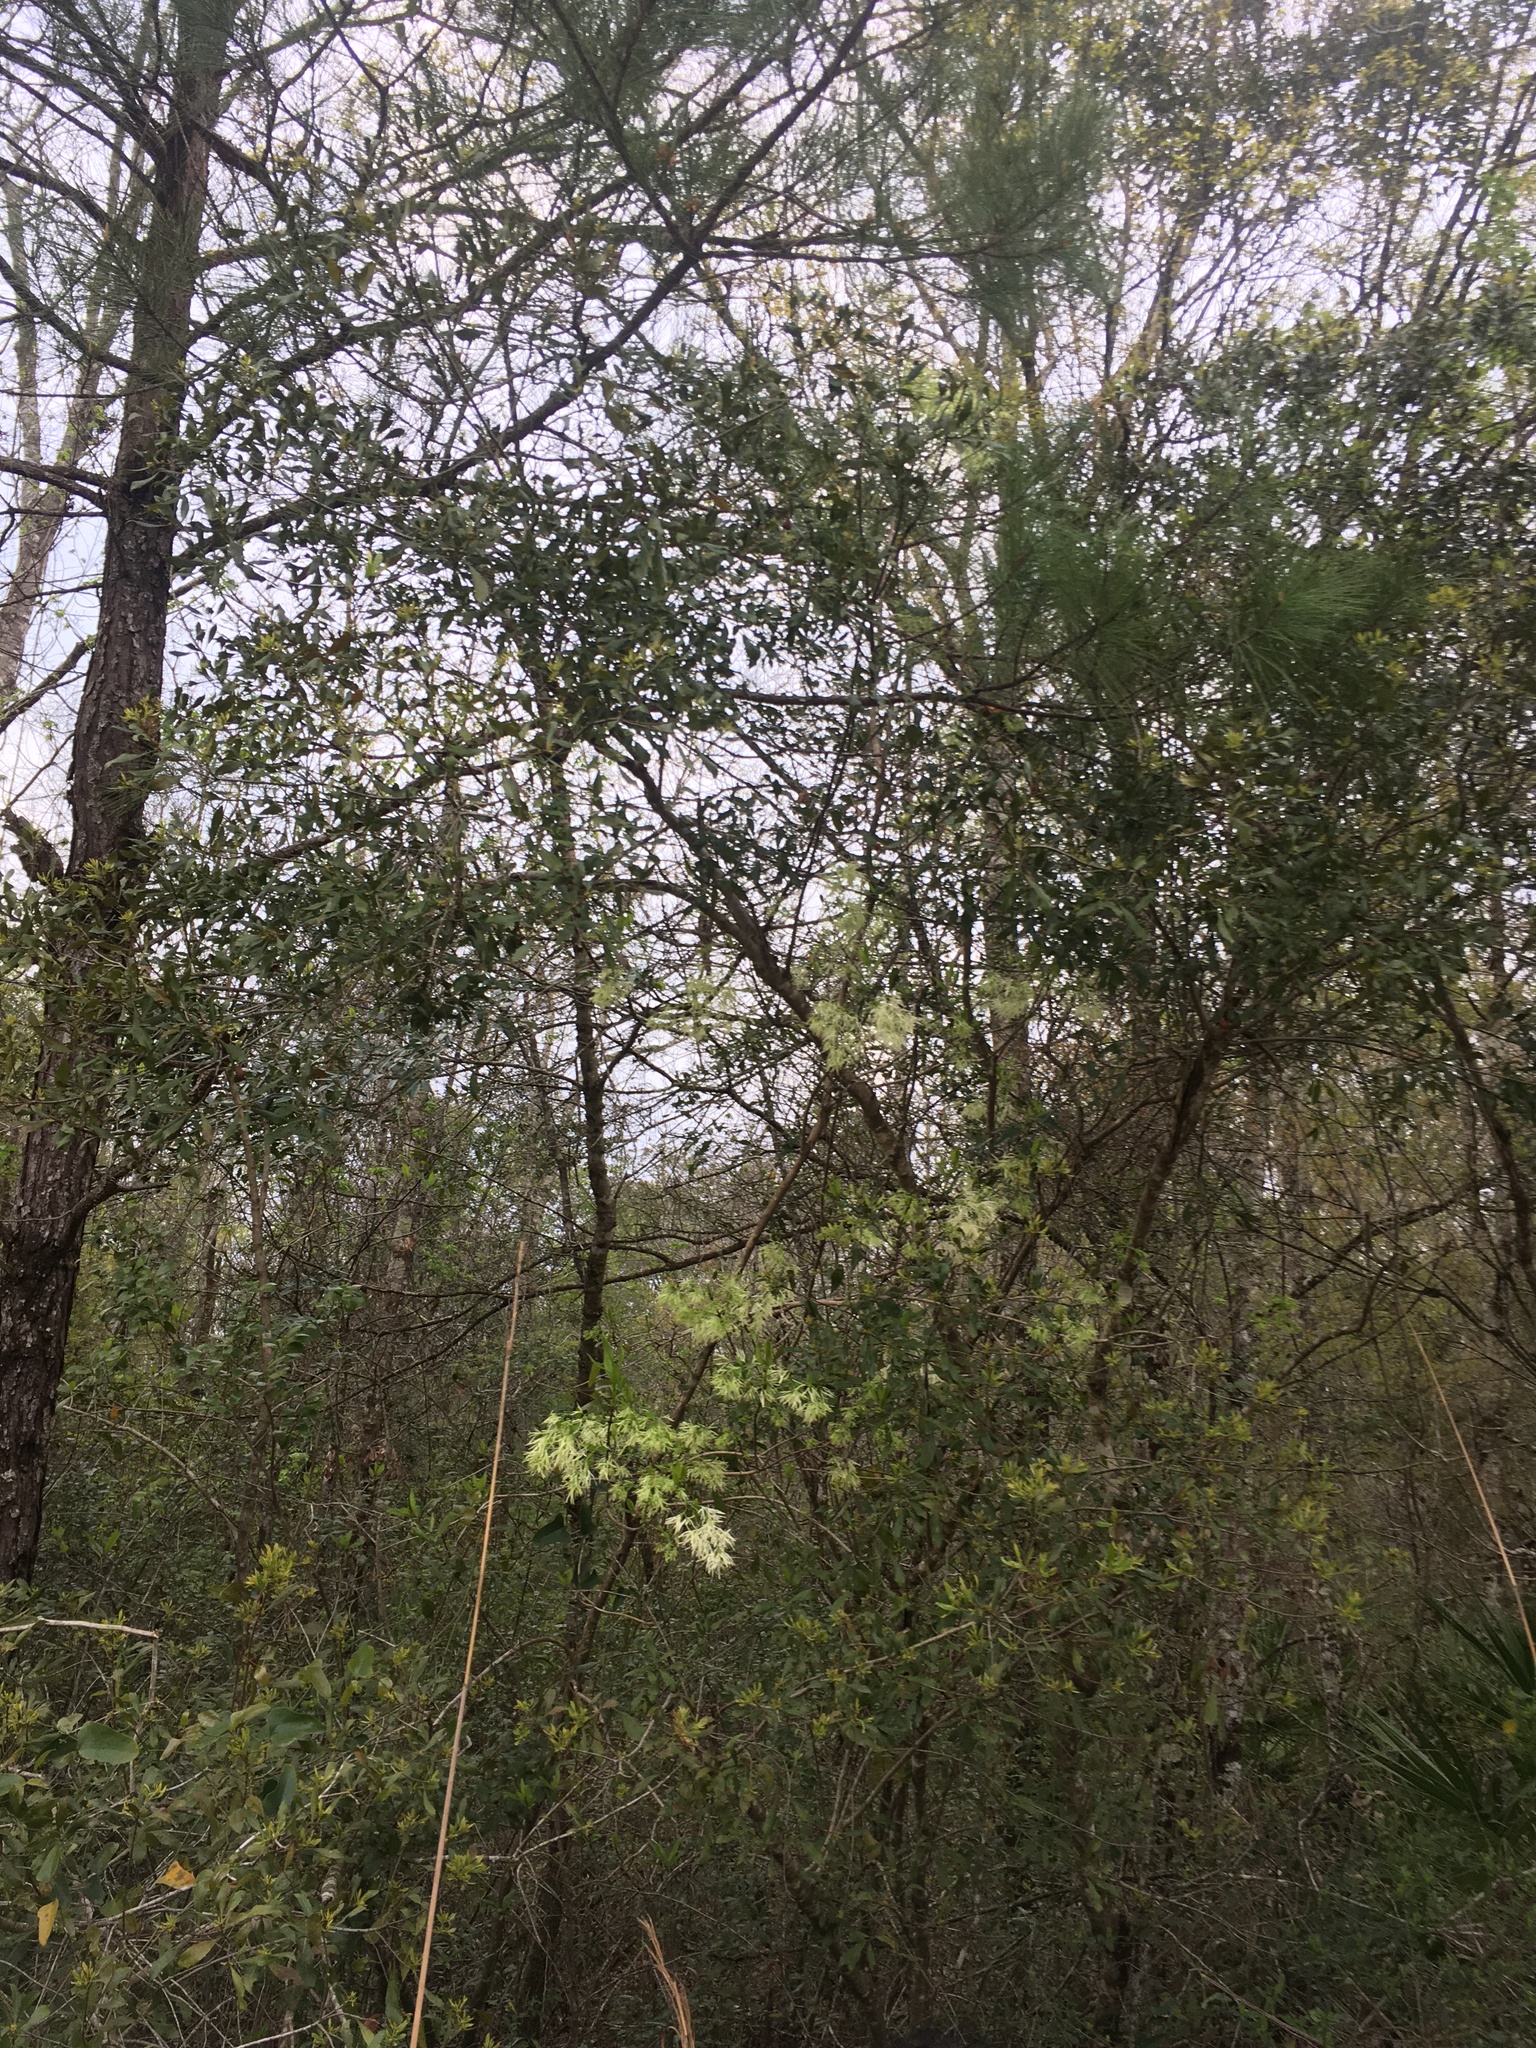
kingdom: Plantae
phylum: Tracheophyta
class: Magnoliopsida
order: Lamiales
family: Oleaceae
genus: Chionanthus
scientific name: Chionanthus virginicus
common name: American fringetree
